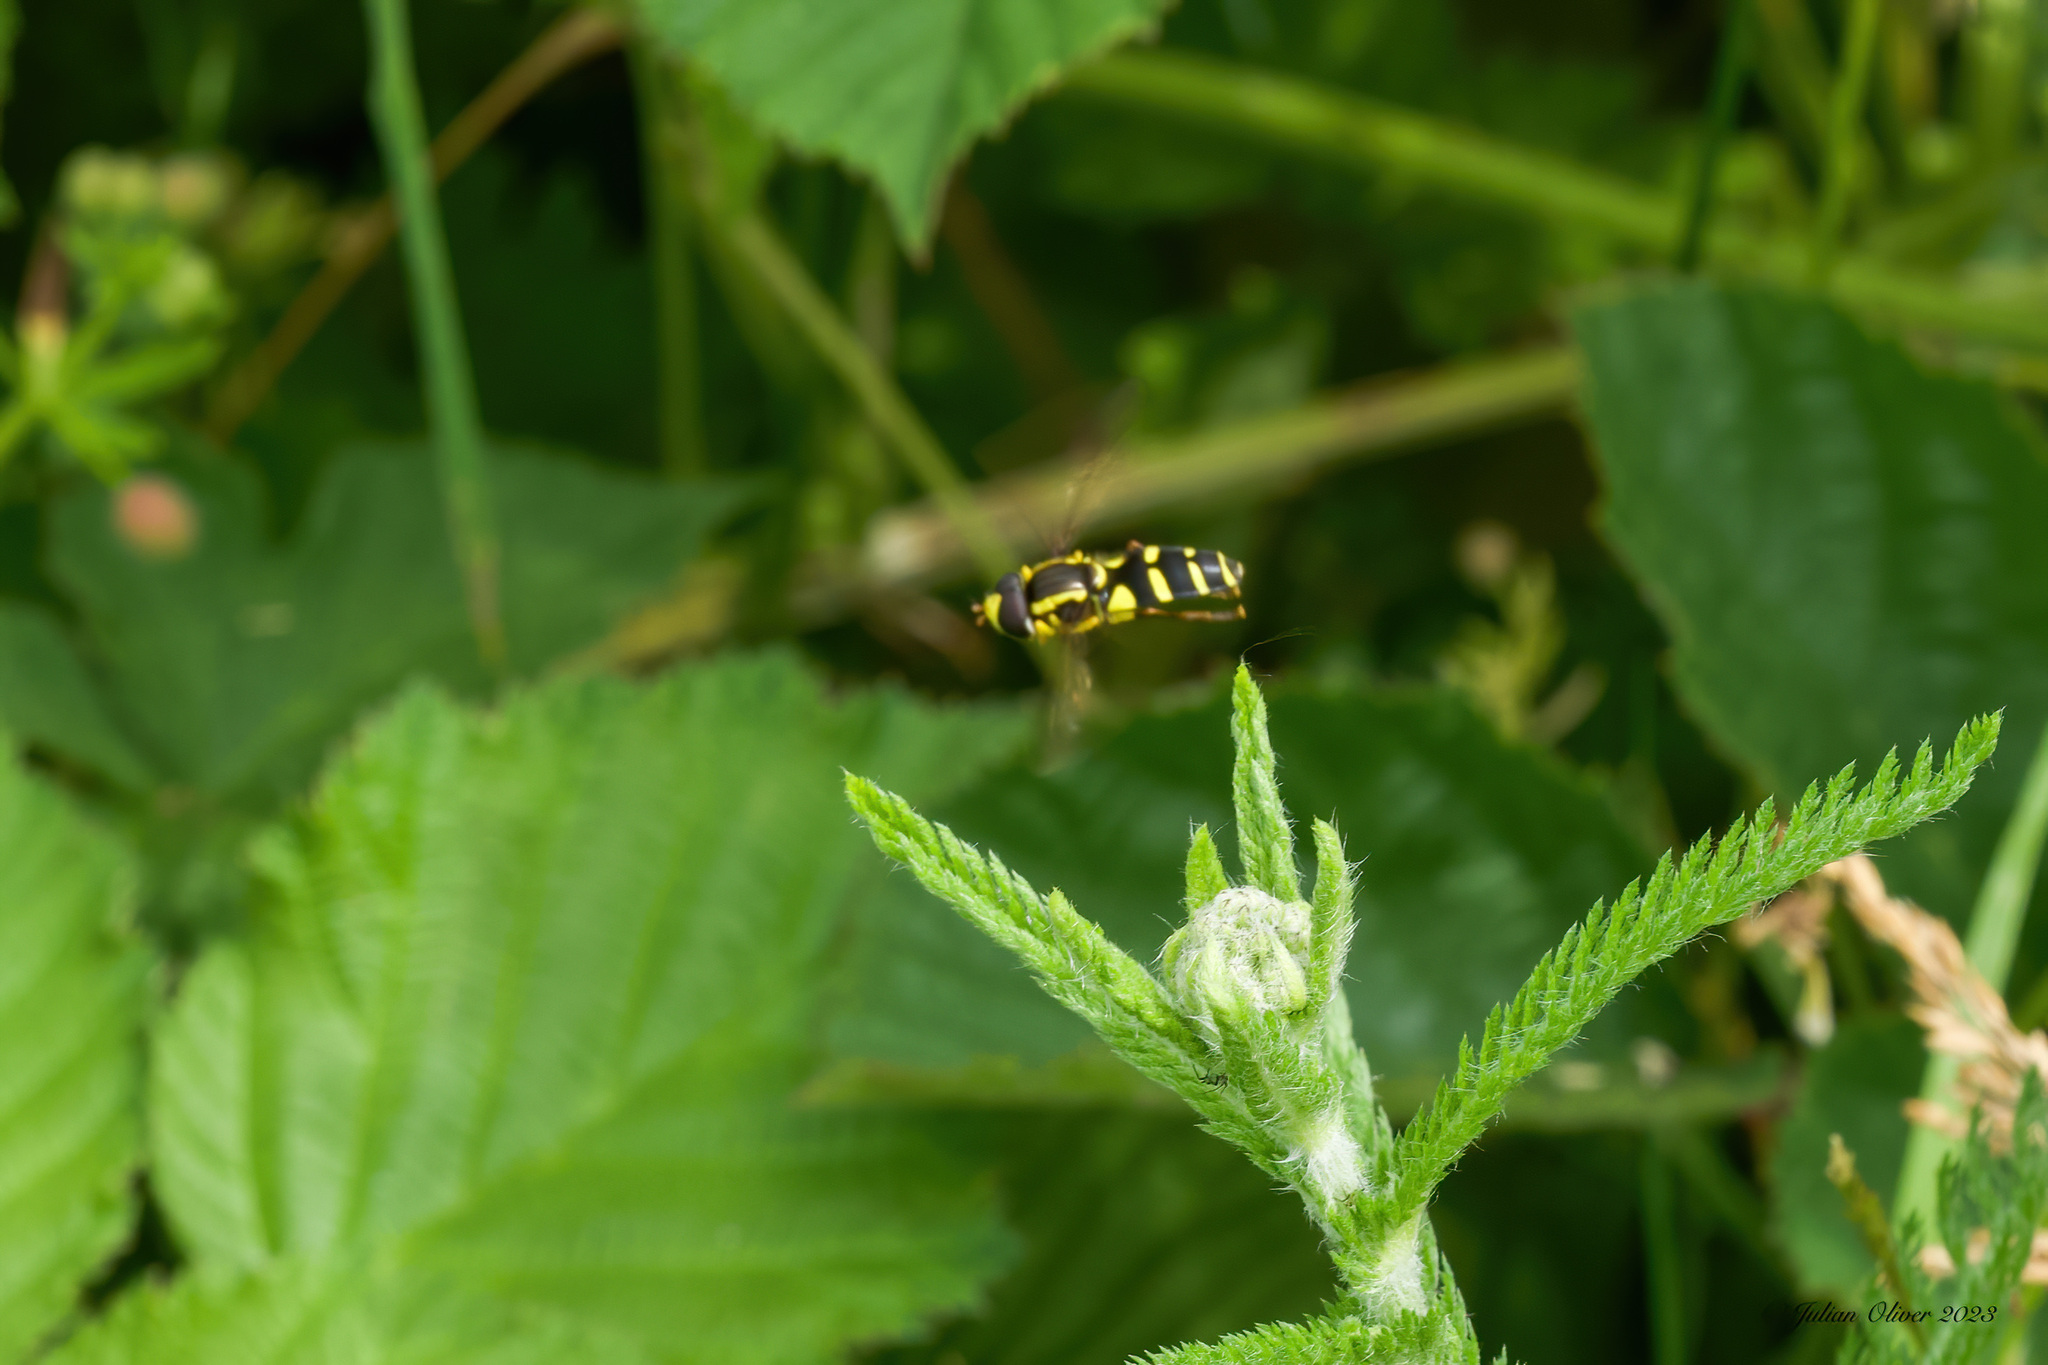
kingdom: Animalia
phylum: Arthropoda
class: Insecta
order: Diptera
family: Syrphidae
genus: Xanthogramma
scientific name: Xanthogramma
